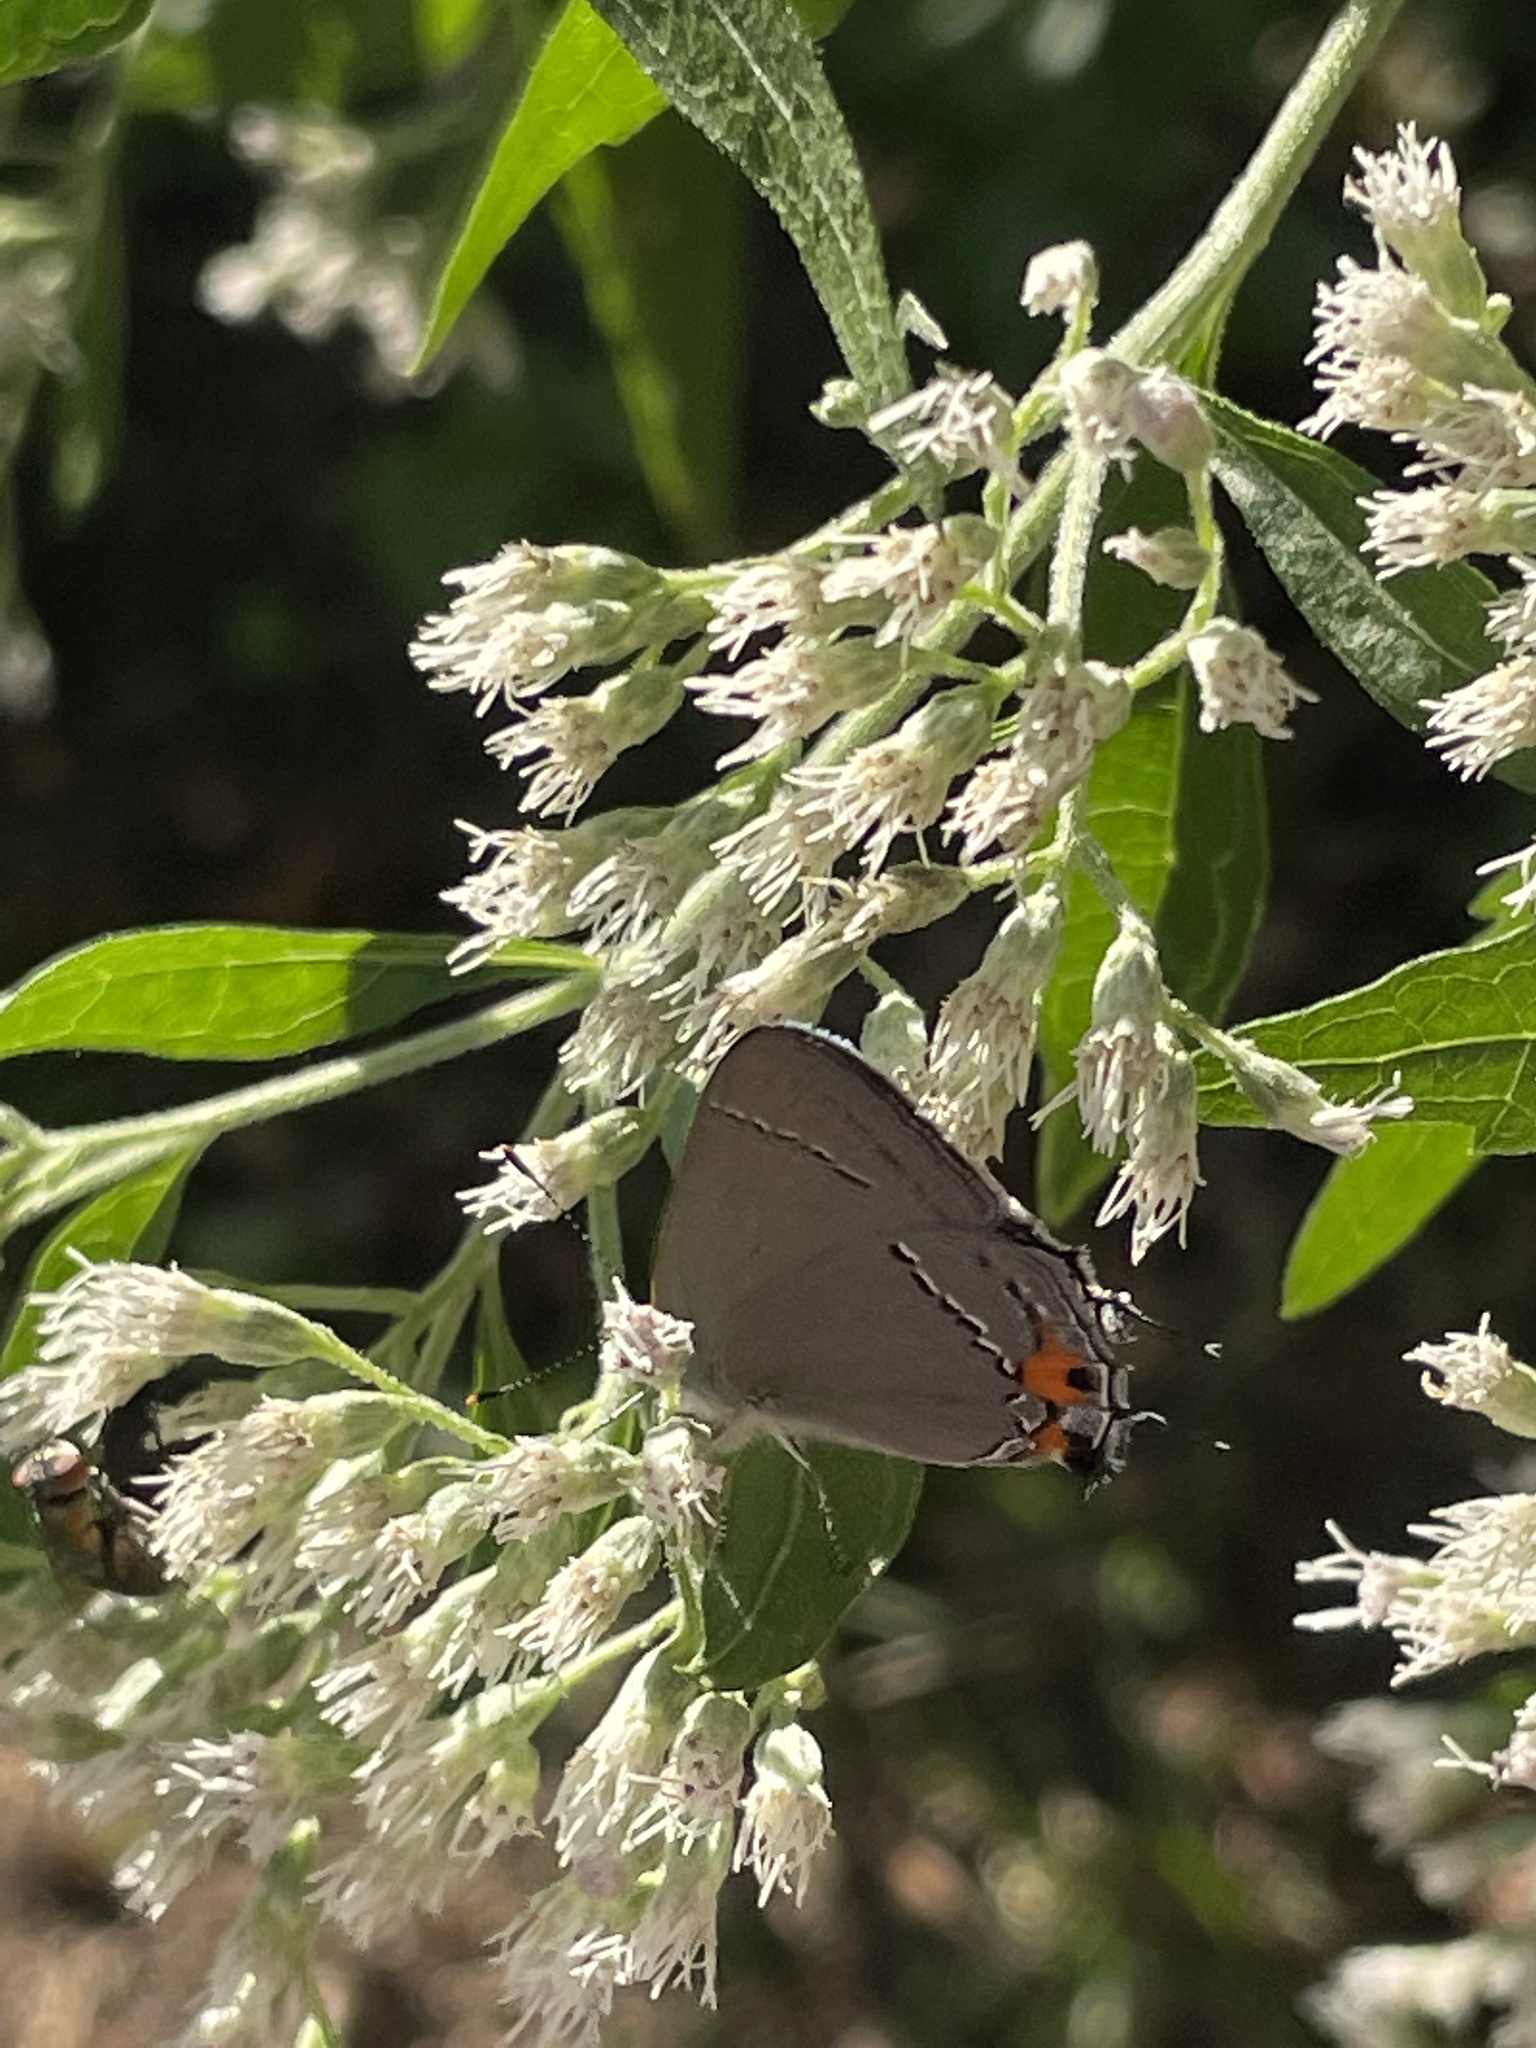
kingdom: Animalia
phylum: Arthropoda
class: Insecta
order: Lepidoptera
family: Lycaenidae
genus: Strymon
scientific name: Strymon melinus
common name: Gray hairstreak
